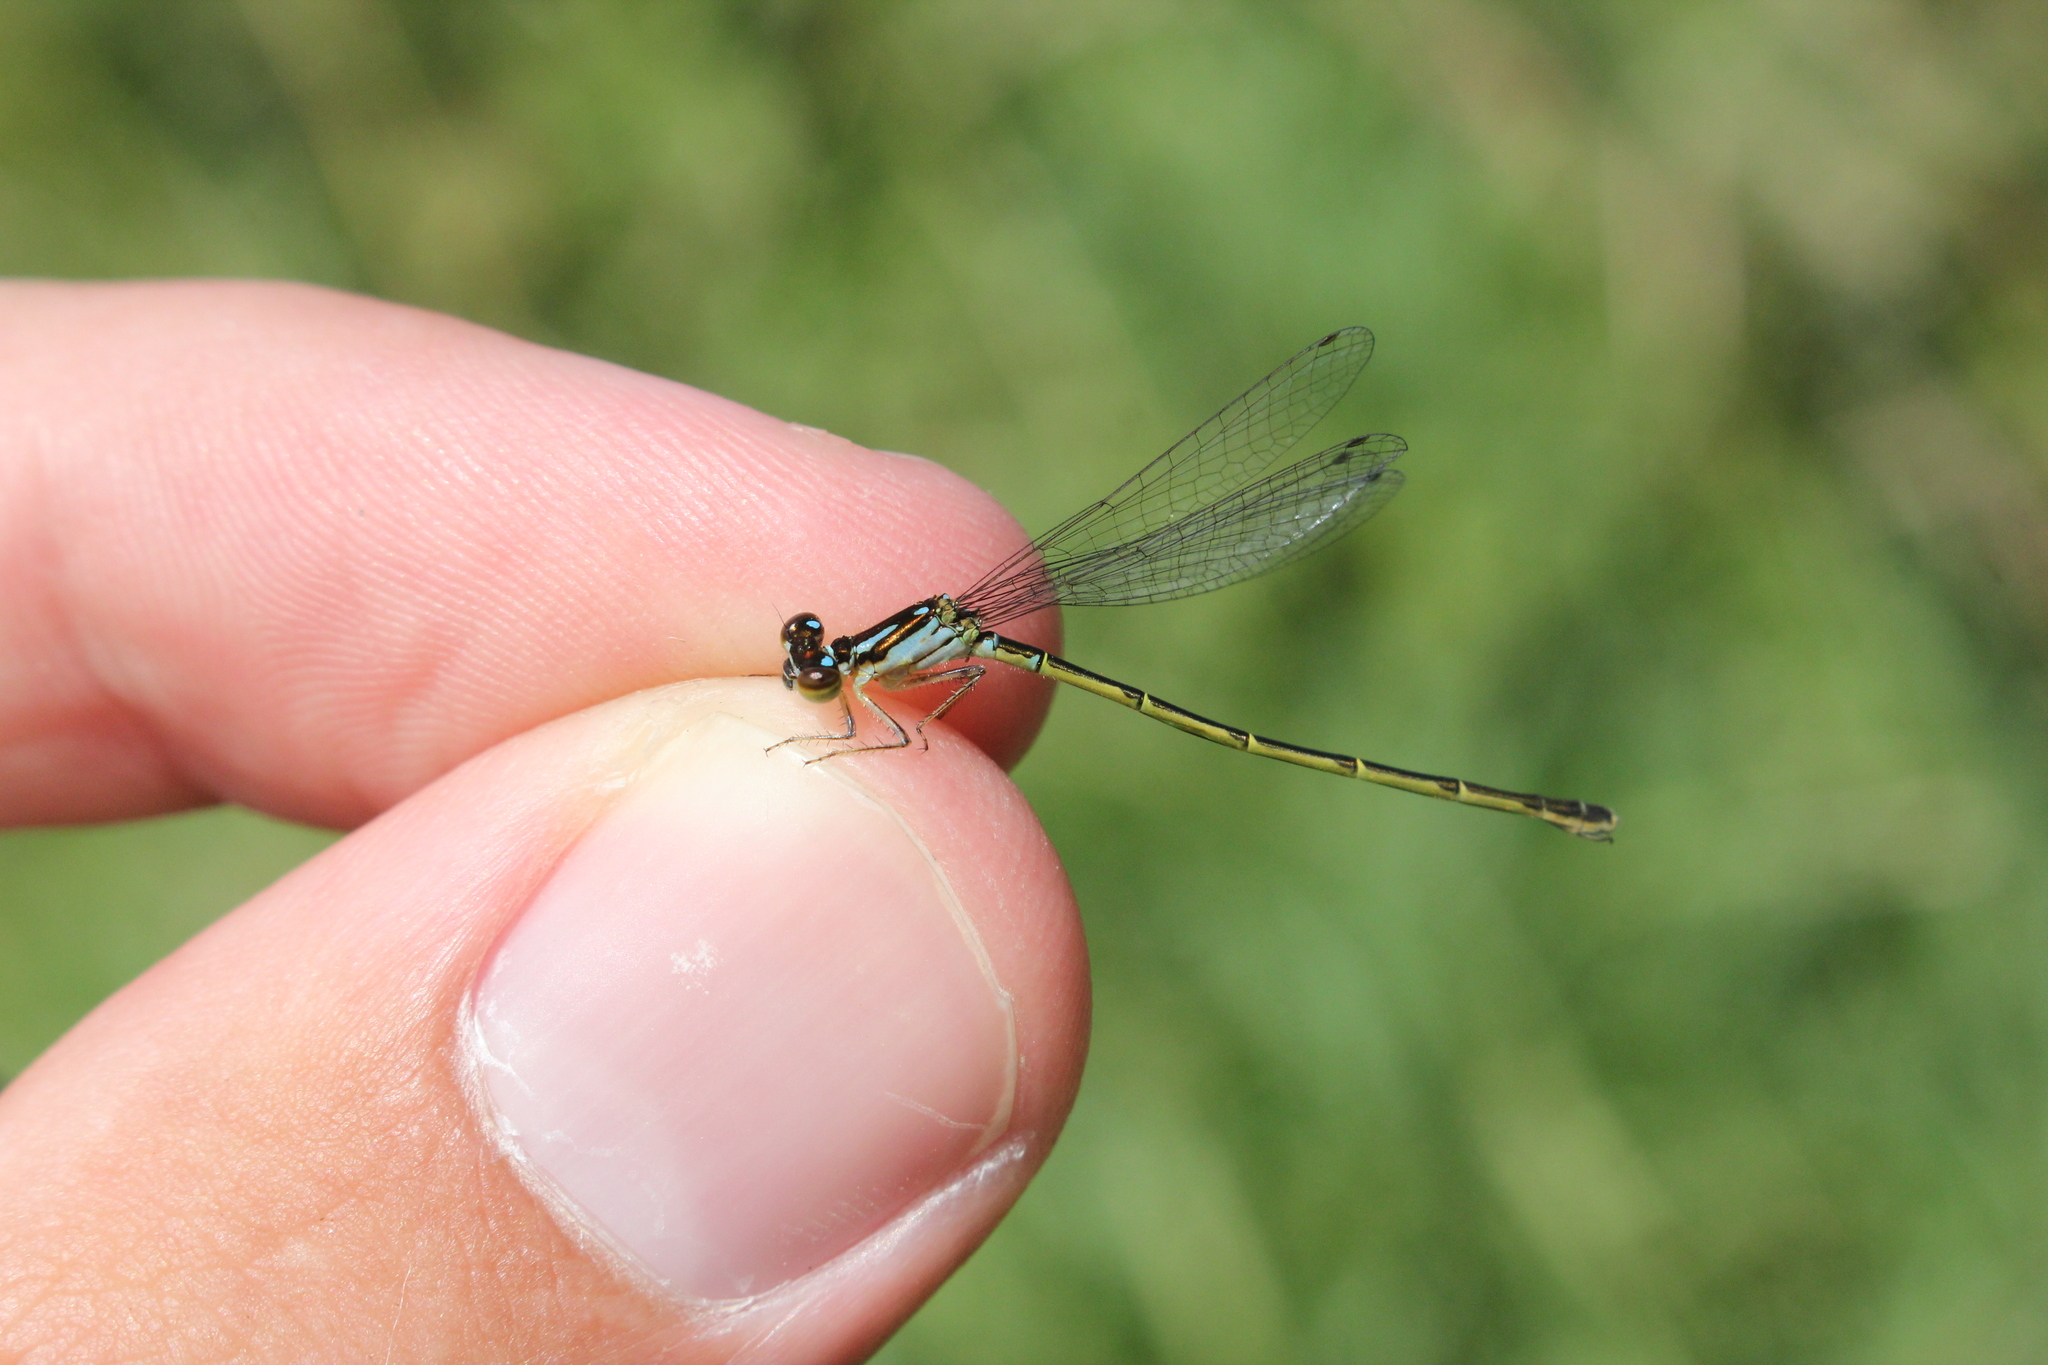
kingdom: Animalia
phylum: Arthropoda
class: Insecta
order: Odonata
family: Coenagrionidae
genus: Ischnura
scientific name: Ischnura posita
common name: Fragile forktail
